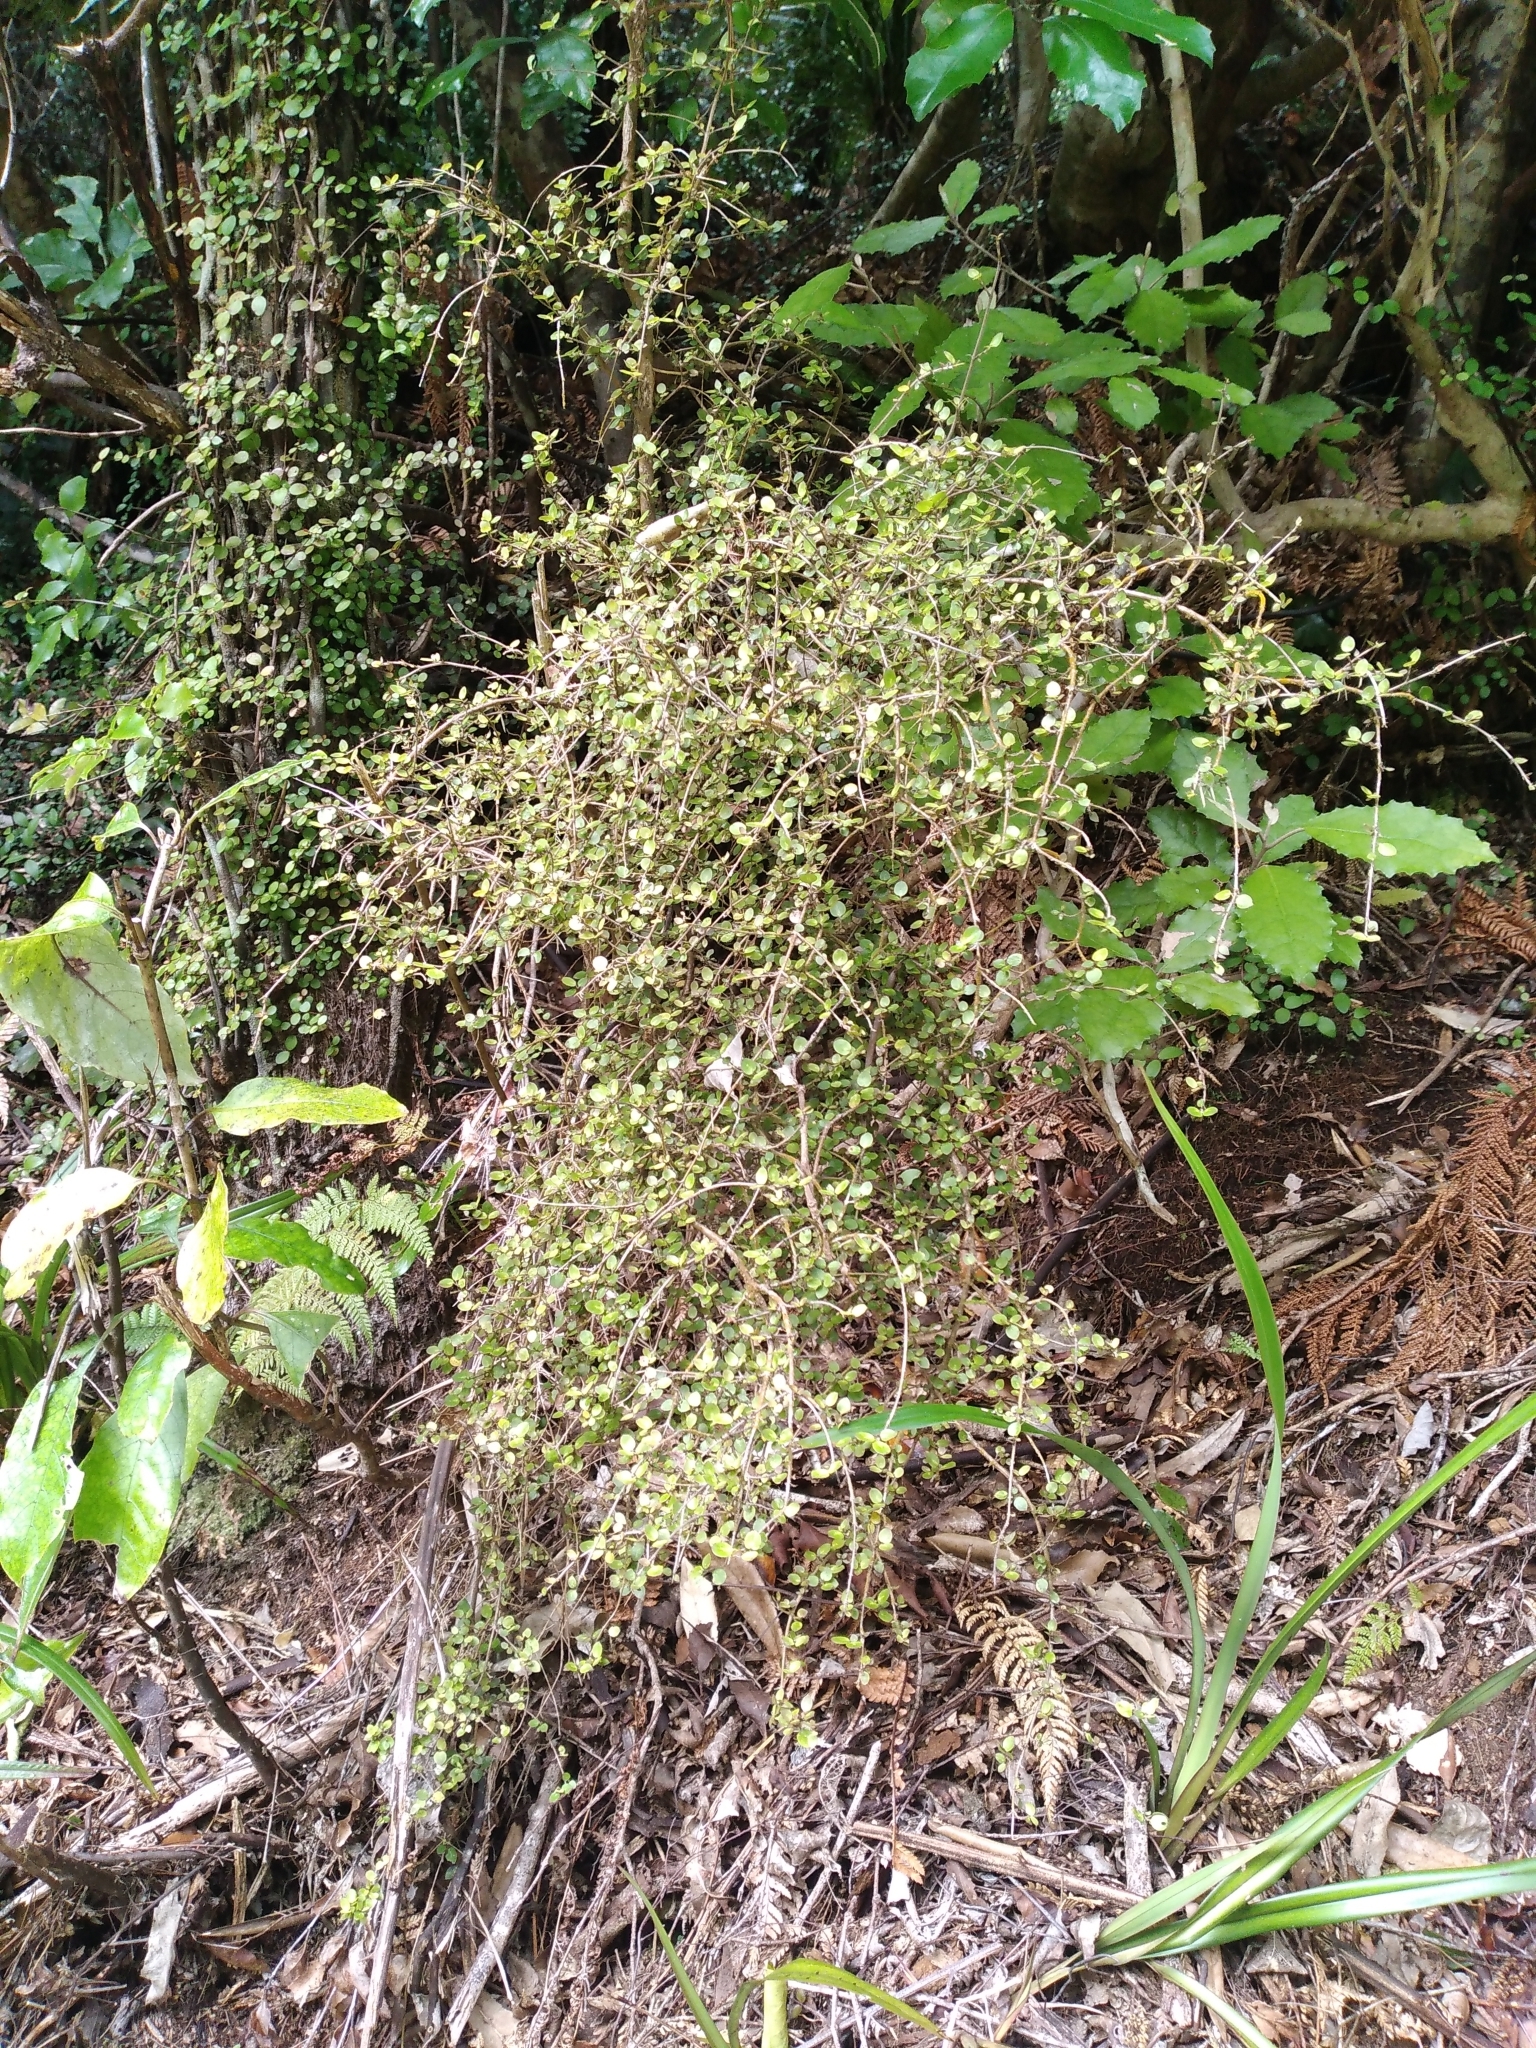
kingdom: Plantae
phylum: Tracheophyta
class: Magnoliopsida
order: Gentianales
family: Rubiaceae
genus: Coprosma
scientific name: Coprosma rhamnoides
